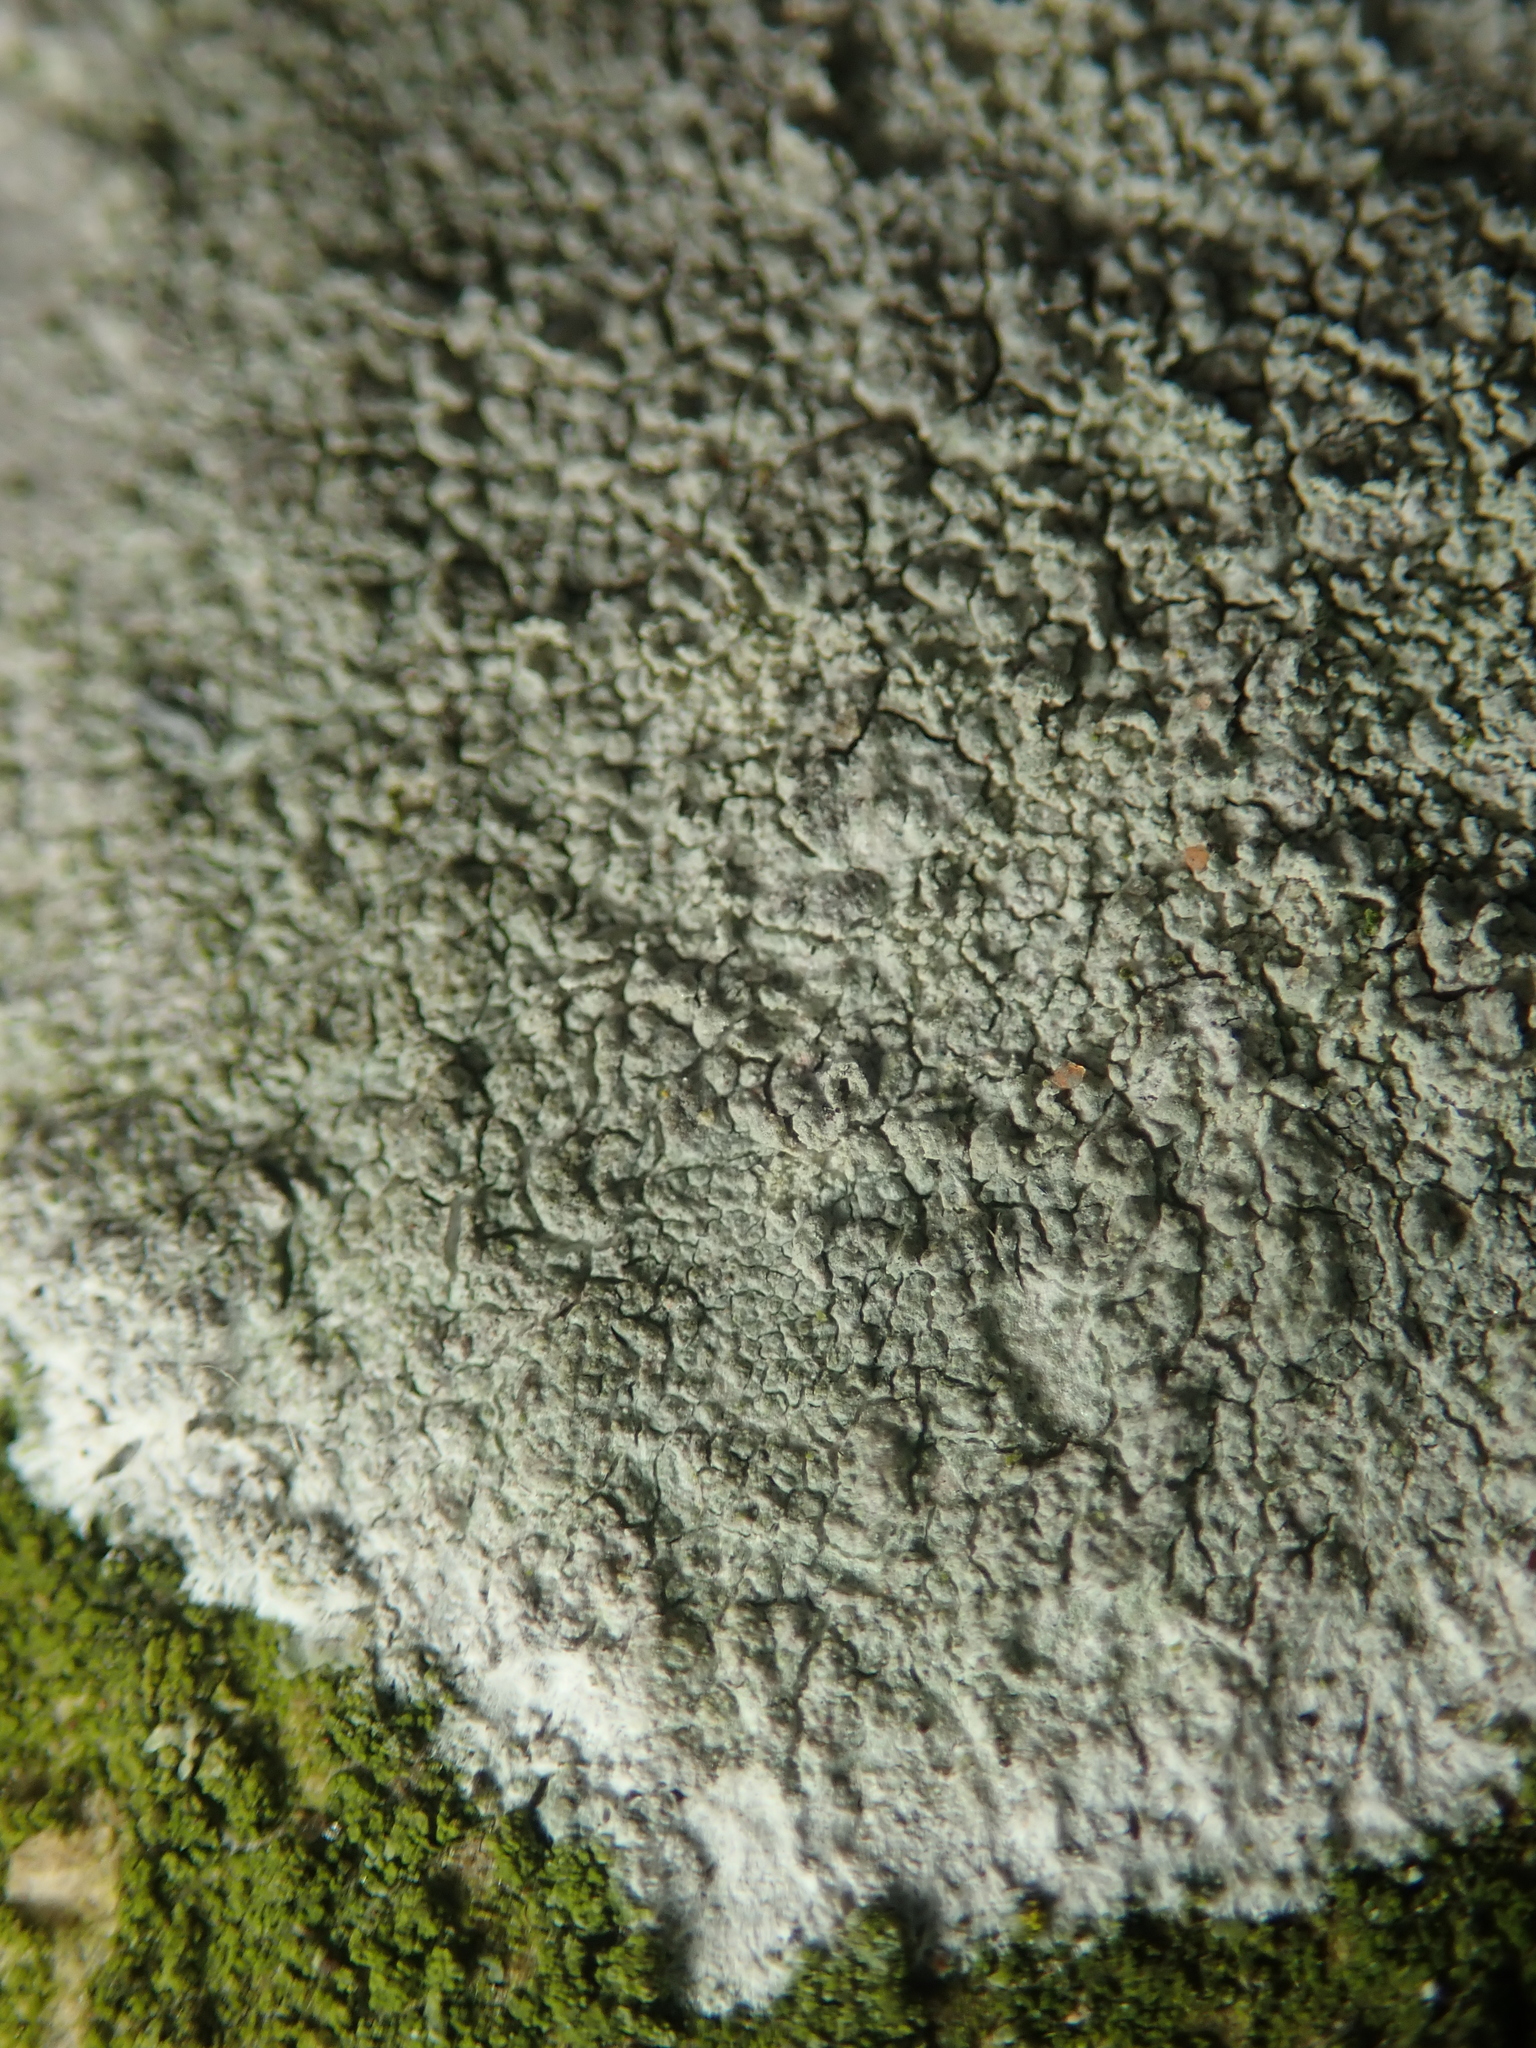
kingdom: Fungi
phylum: Ascomycota
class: Lecanoromycetes
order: Ostropales
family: Phlyctidaceae
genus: Phlyctis
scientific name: Phlyctis argena
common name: Whitewash lichen
